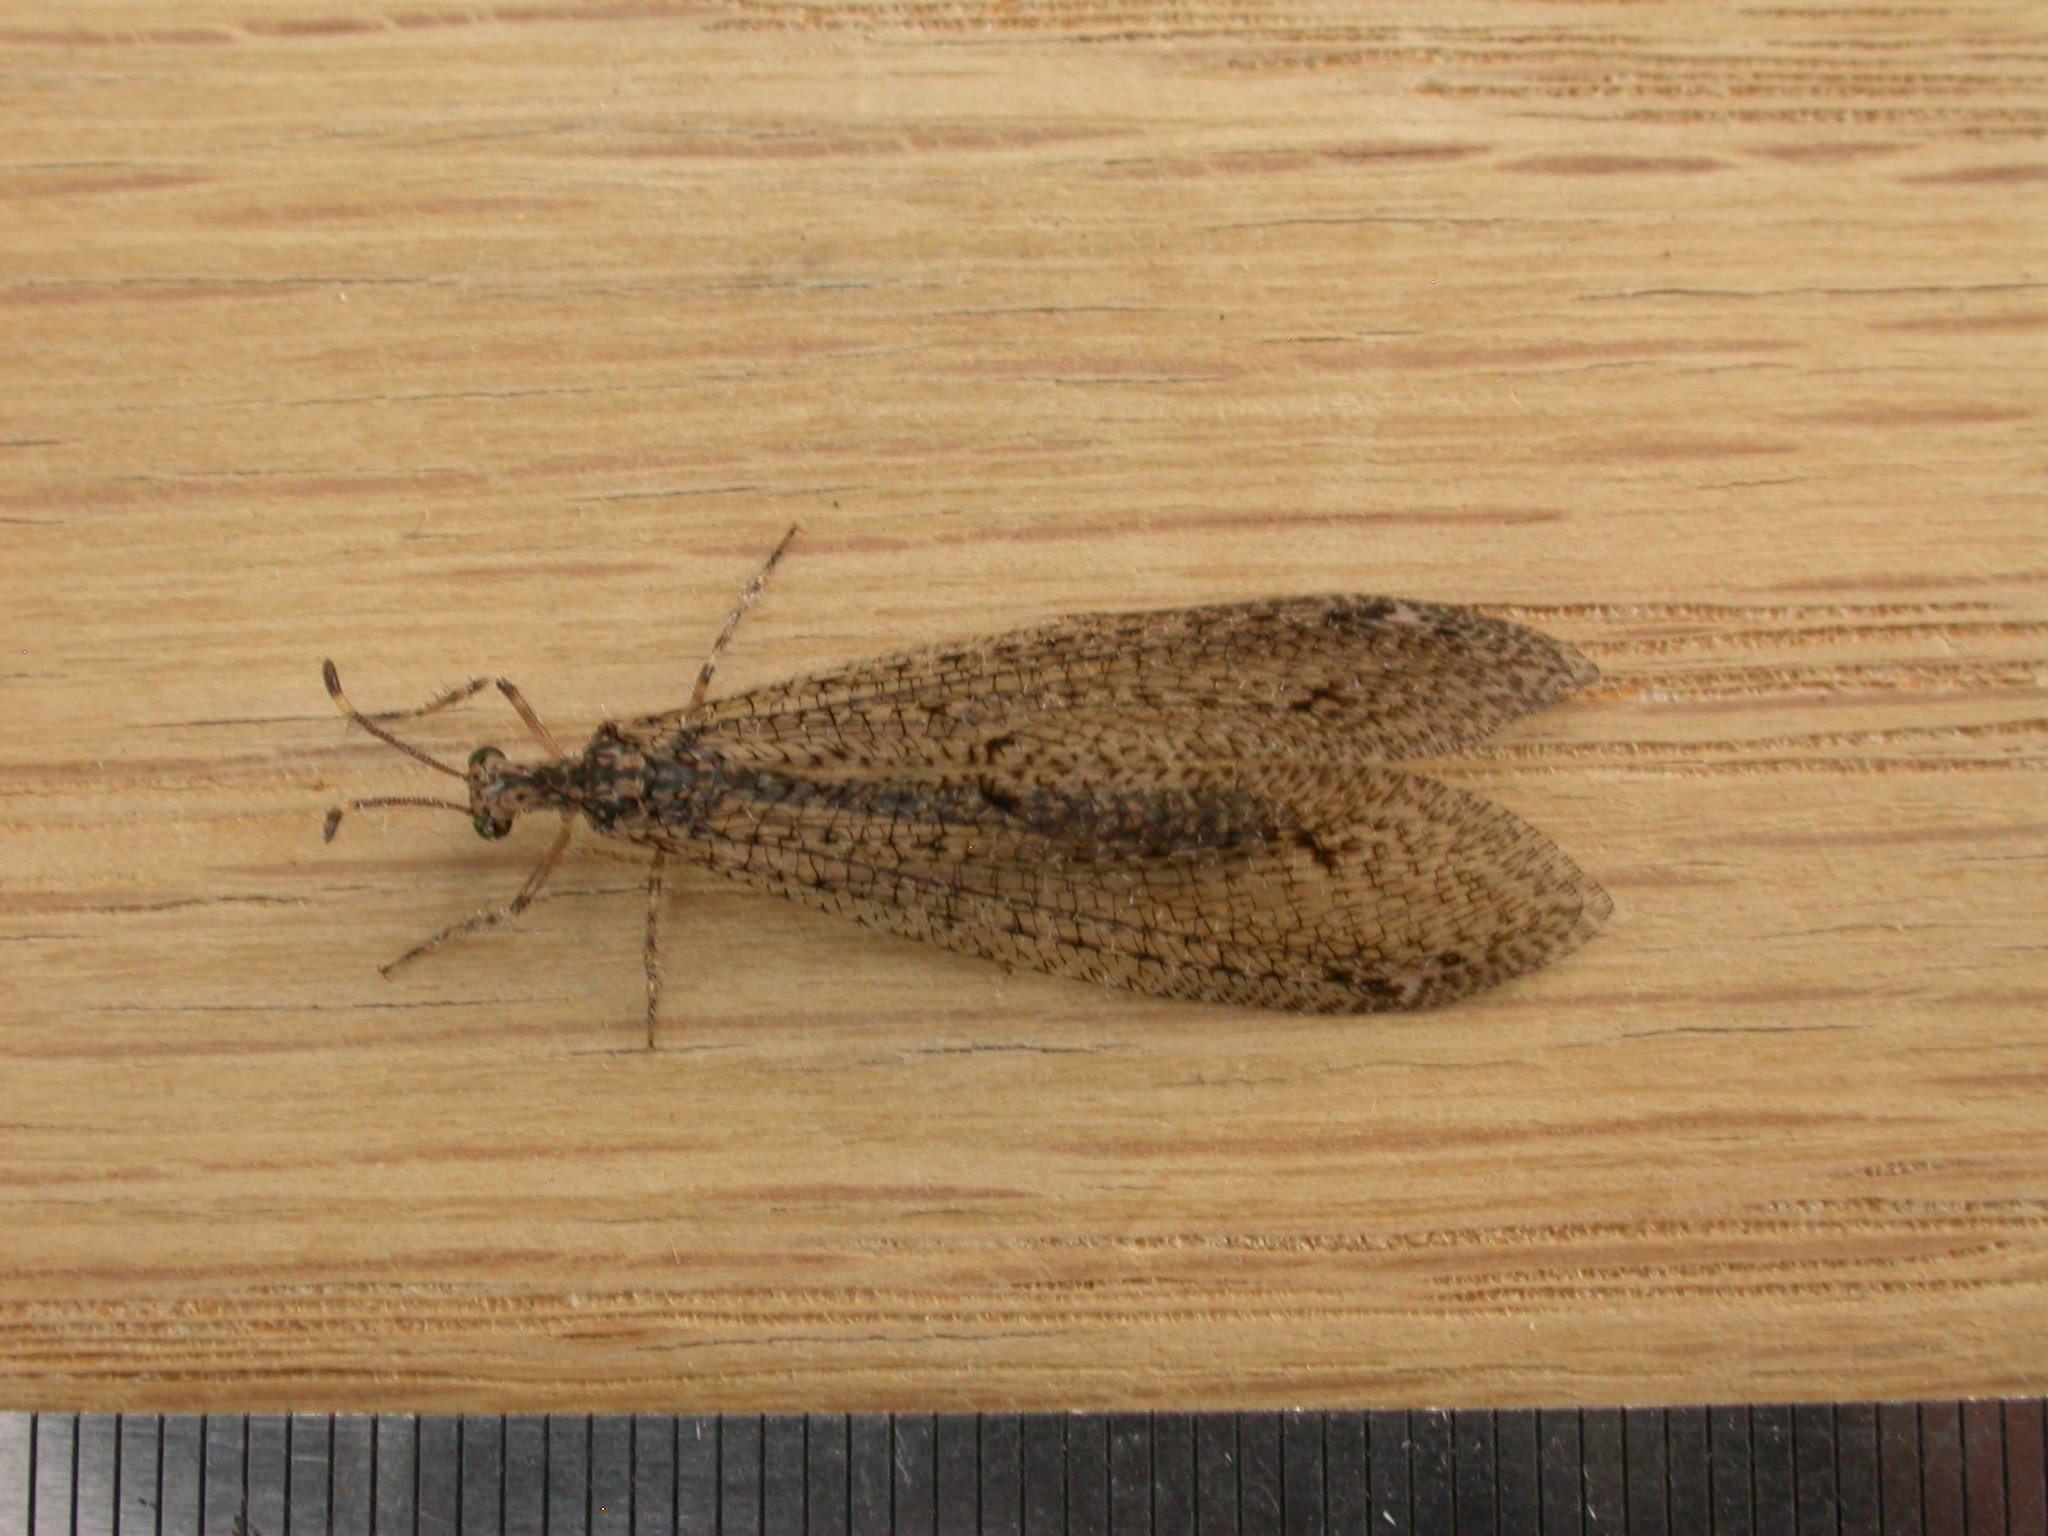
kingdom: Animalia
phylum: Arthropoda
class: Insecta
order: Neuroptera
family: Myrmeleontidae
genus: Glenoleon
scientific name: Glenoleon osmyloides
